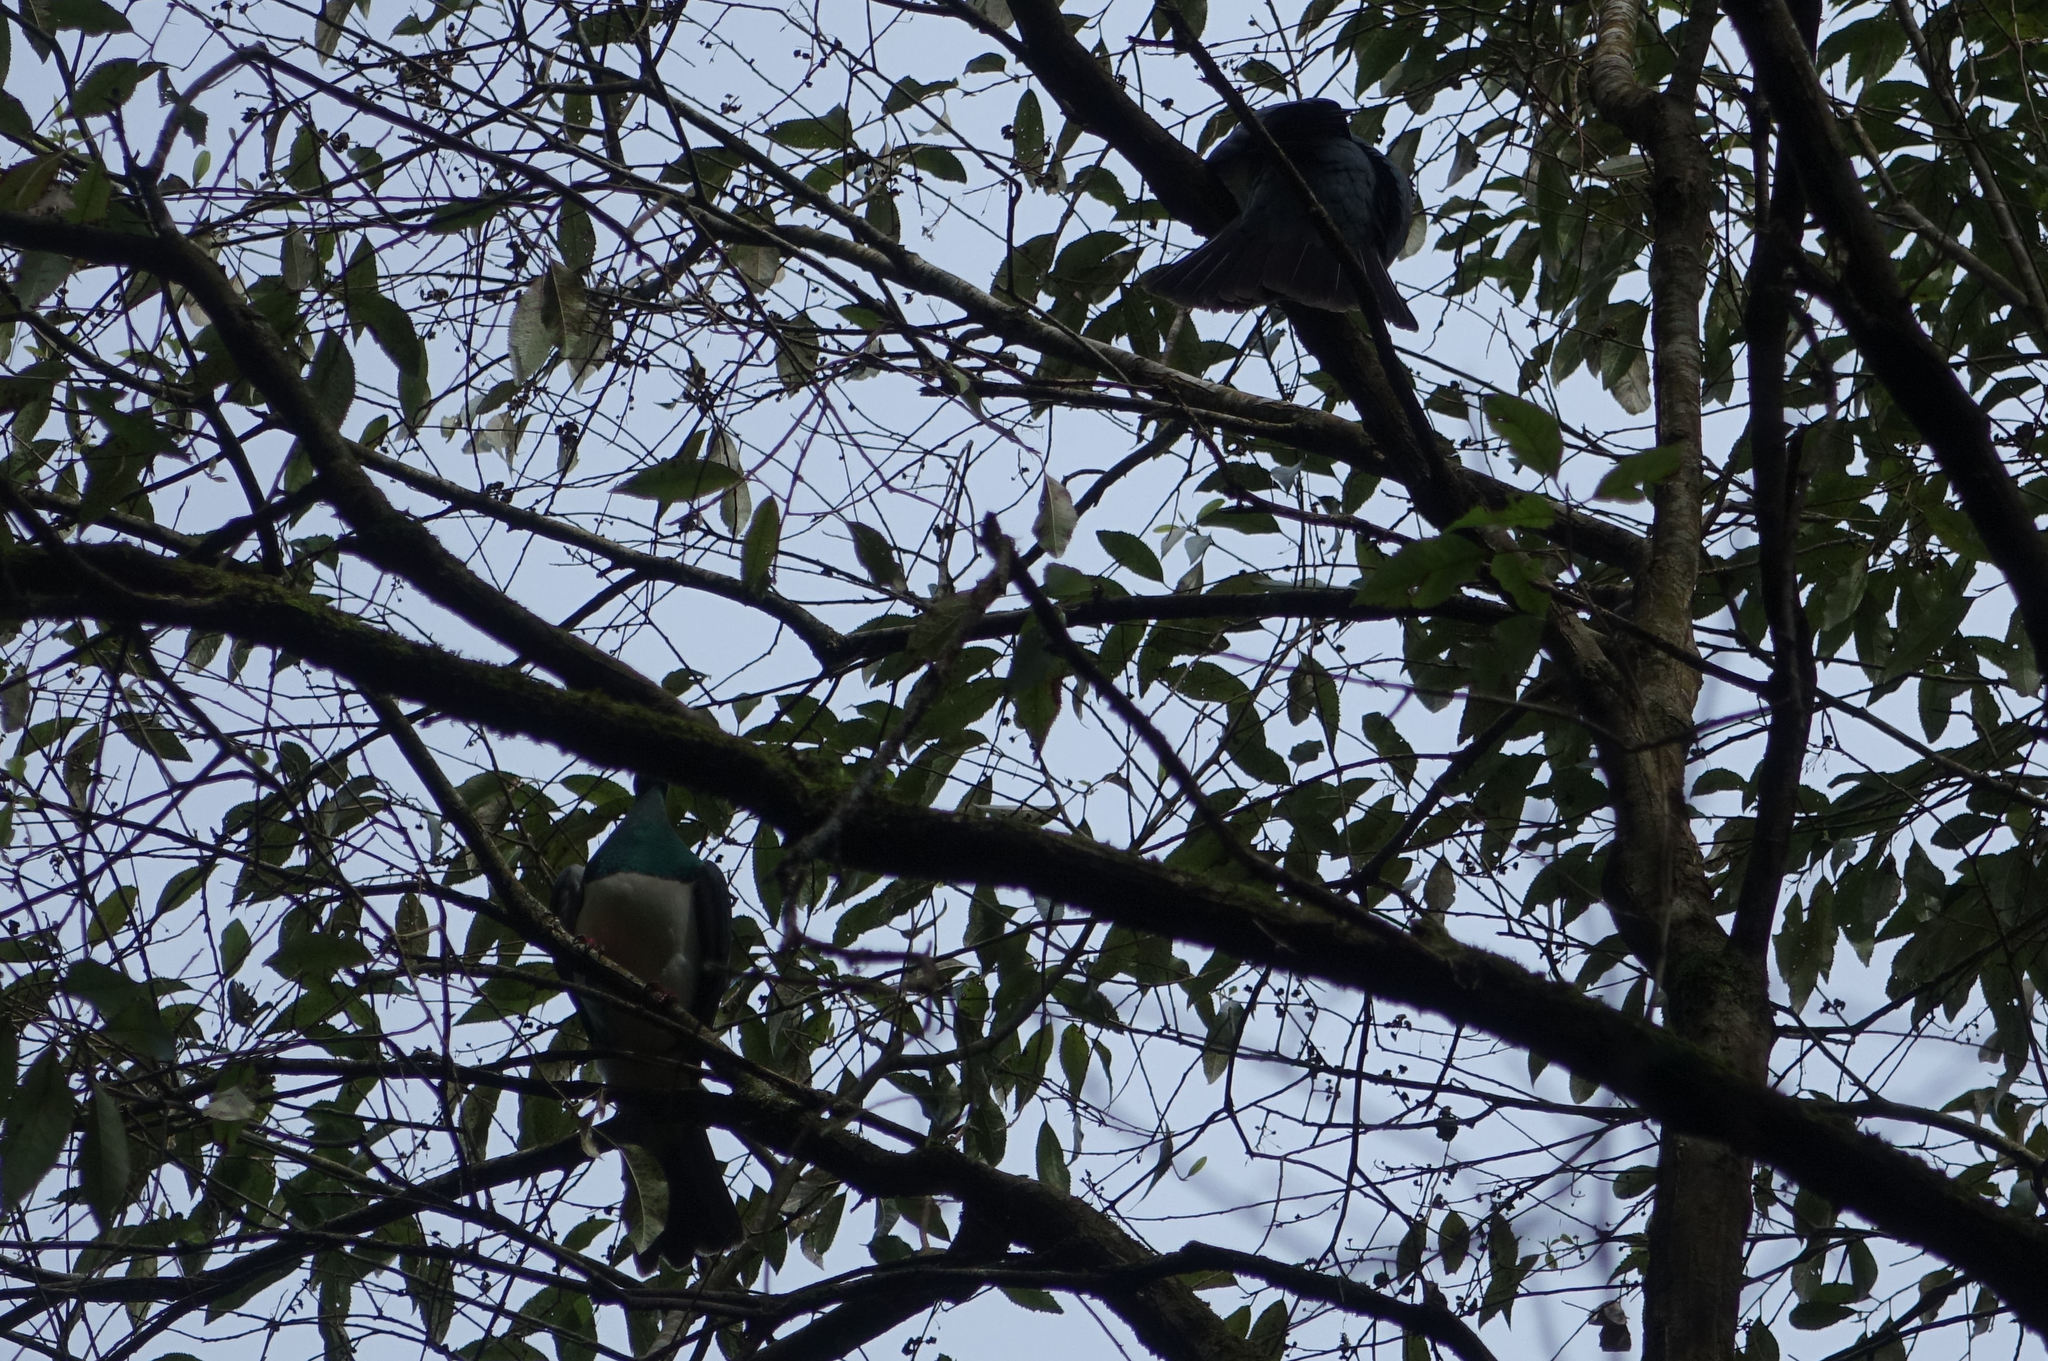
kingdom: Animalia
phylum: Chordata
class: Aves
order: Columbiformes
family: Columbidae
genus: Hemiphaga
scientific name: Hemiphaga novaeseelandiae
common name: New zealand pigeon
